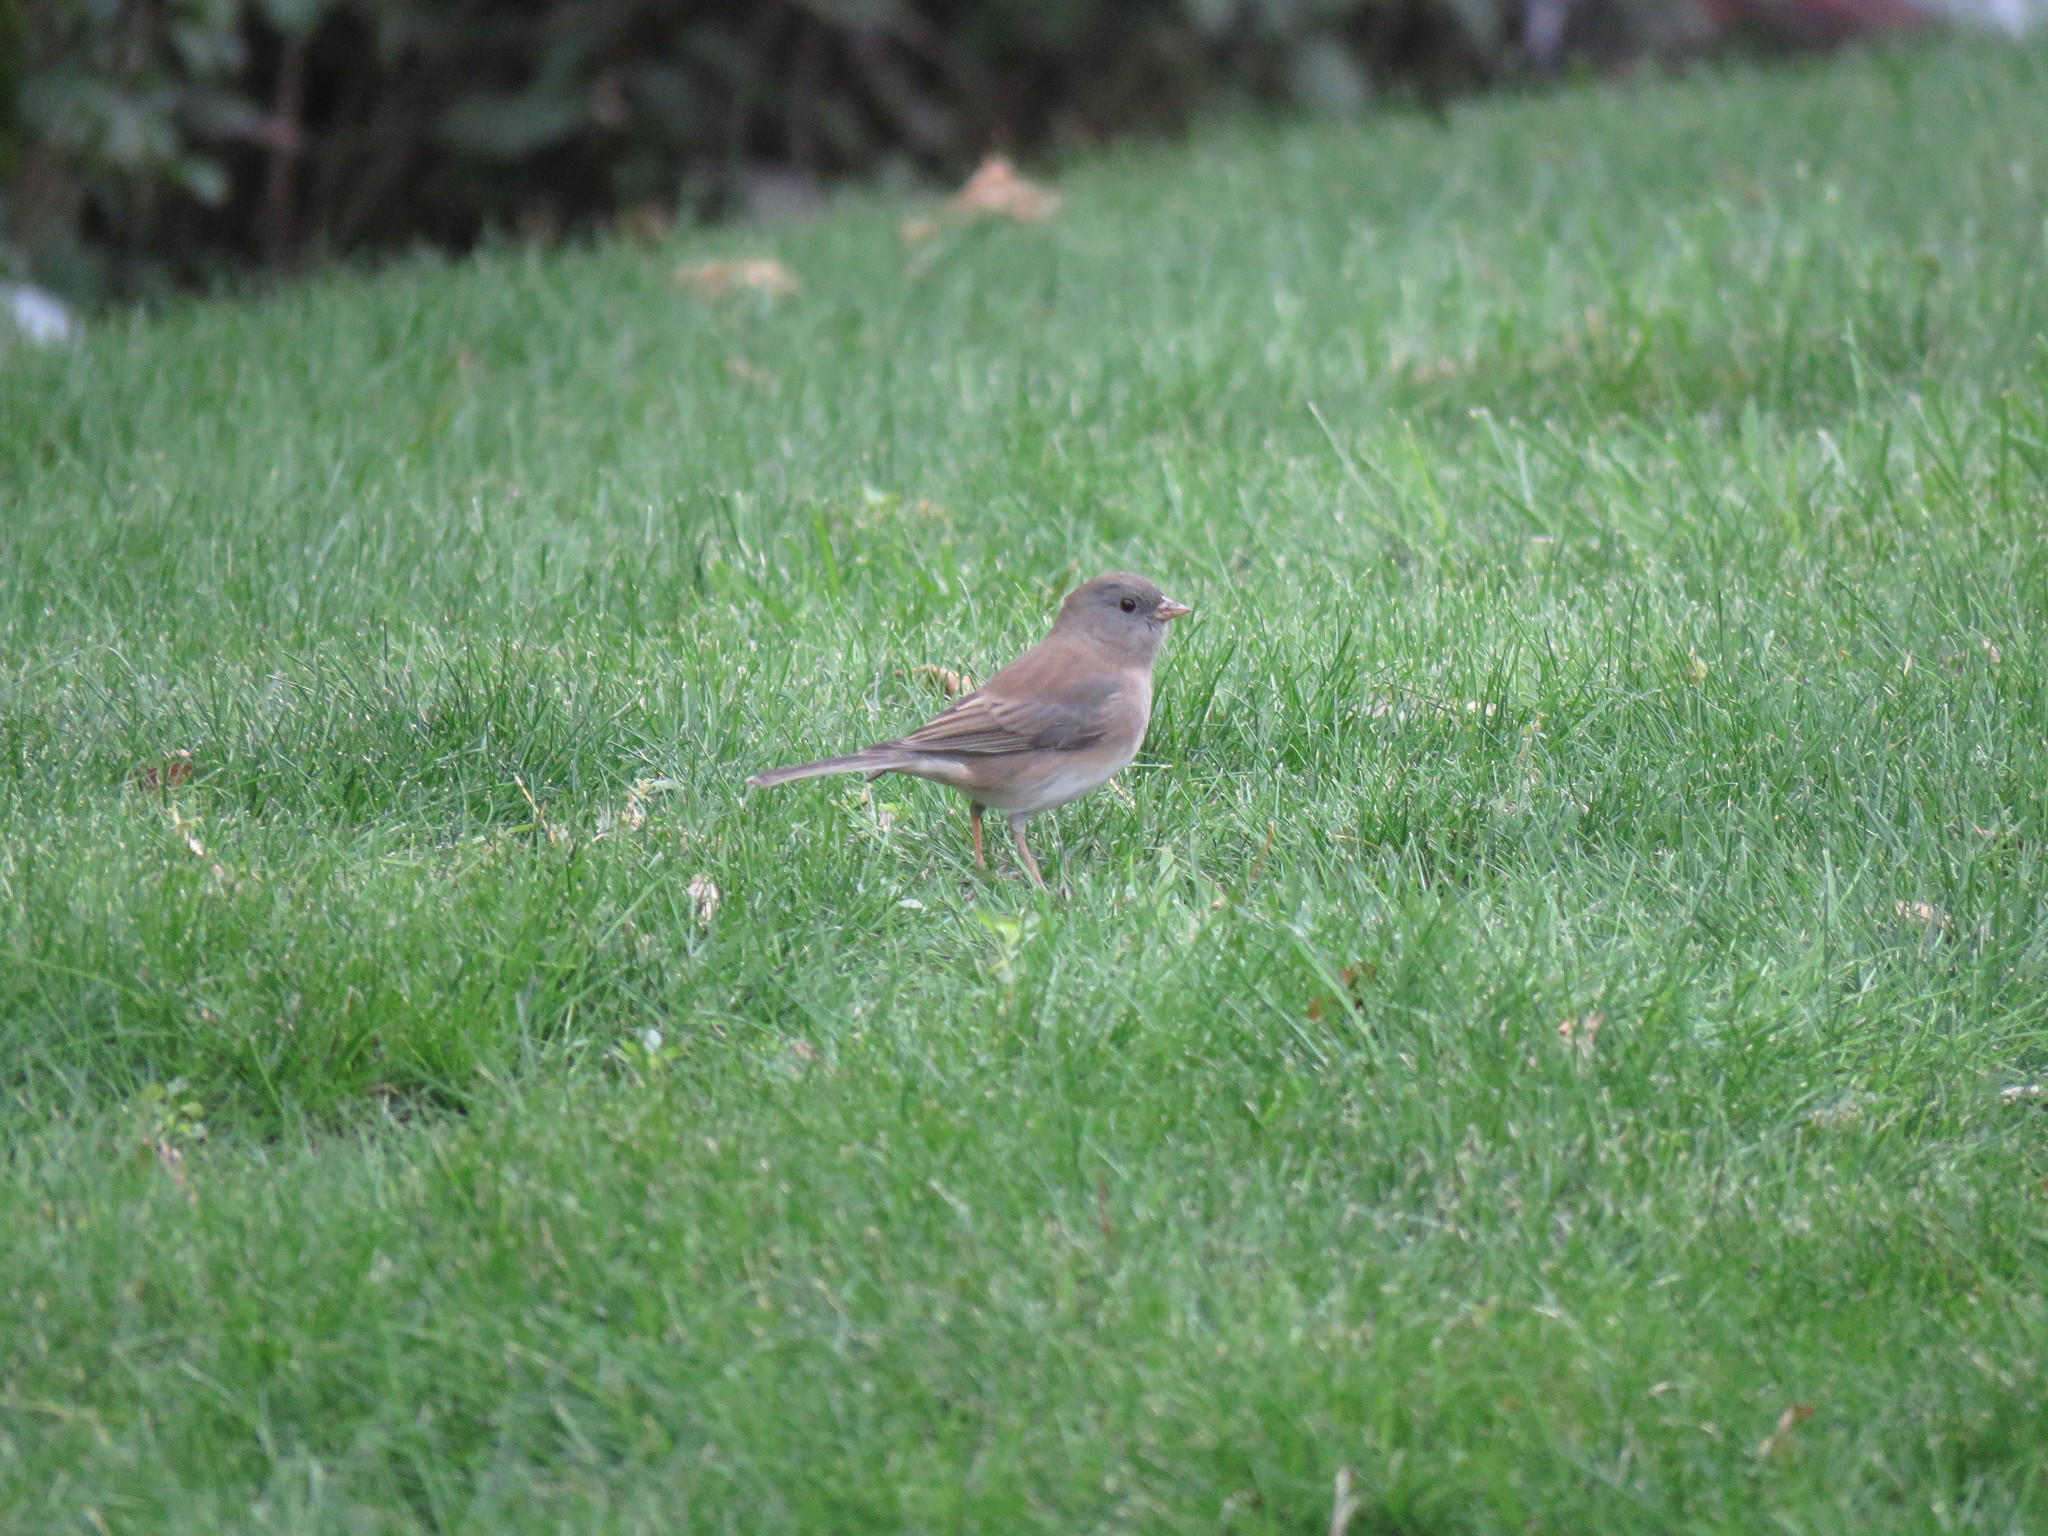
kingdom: Animalia
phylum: Chordata
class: Aves
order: Passeriformes
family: Passerellidae
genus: Junco
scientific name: Junco hyemalis
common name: Dark-eyed junco
